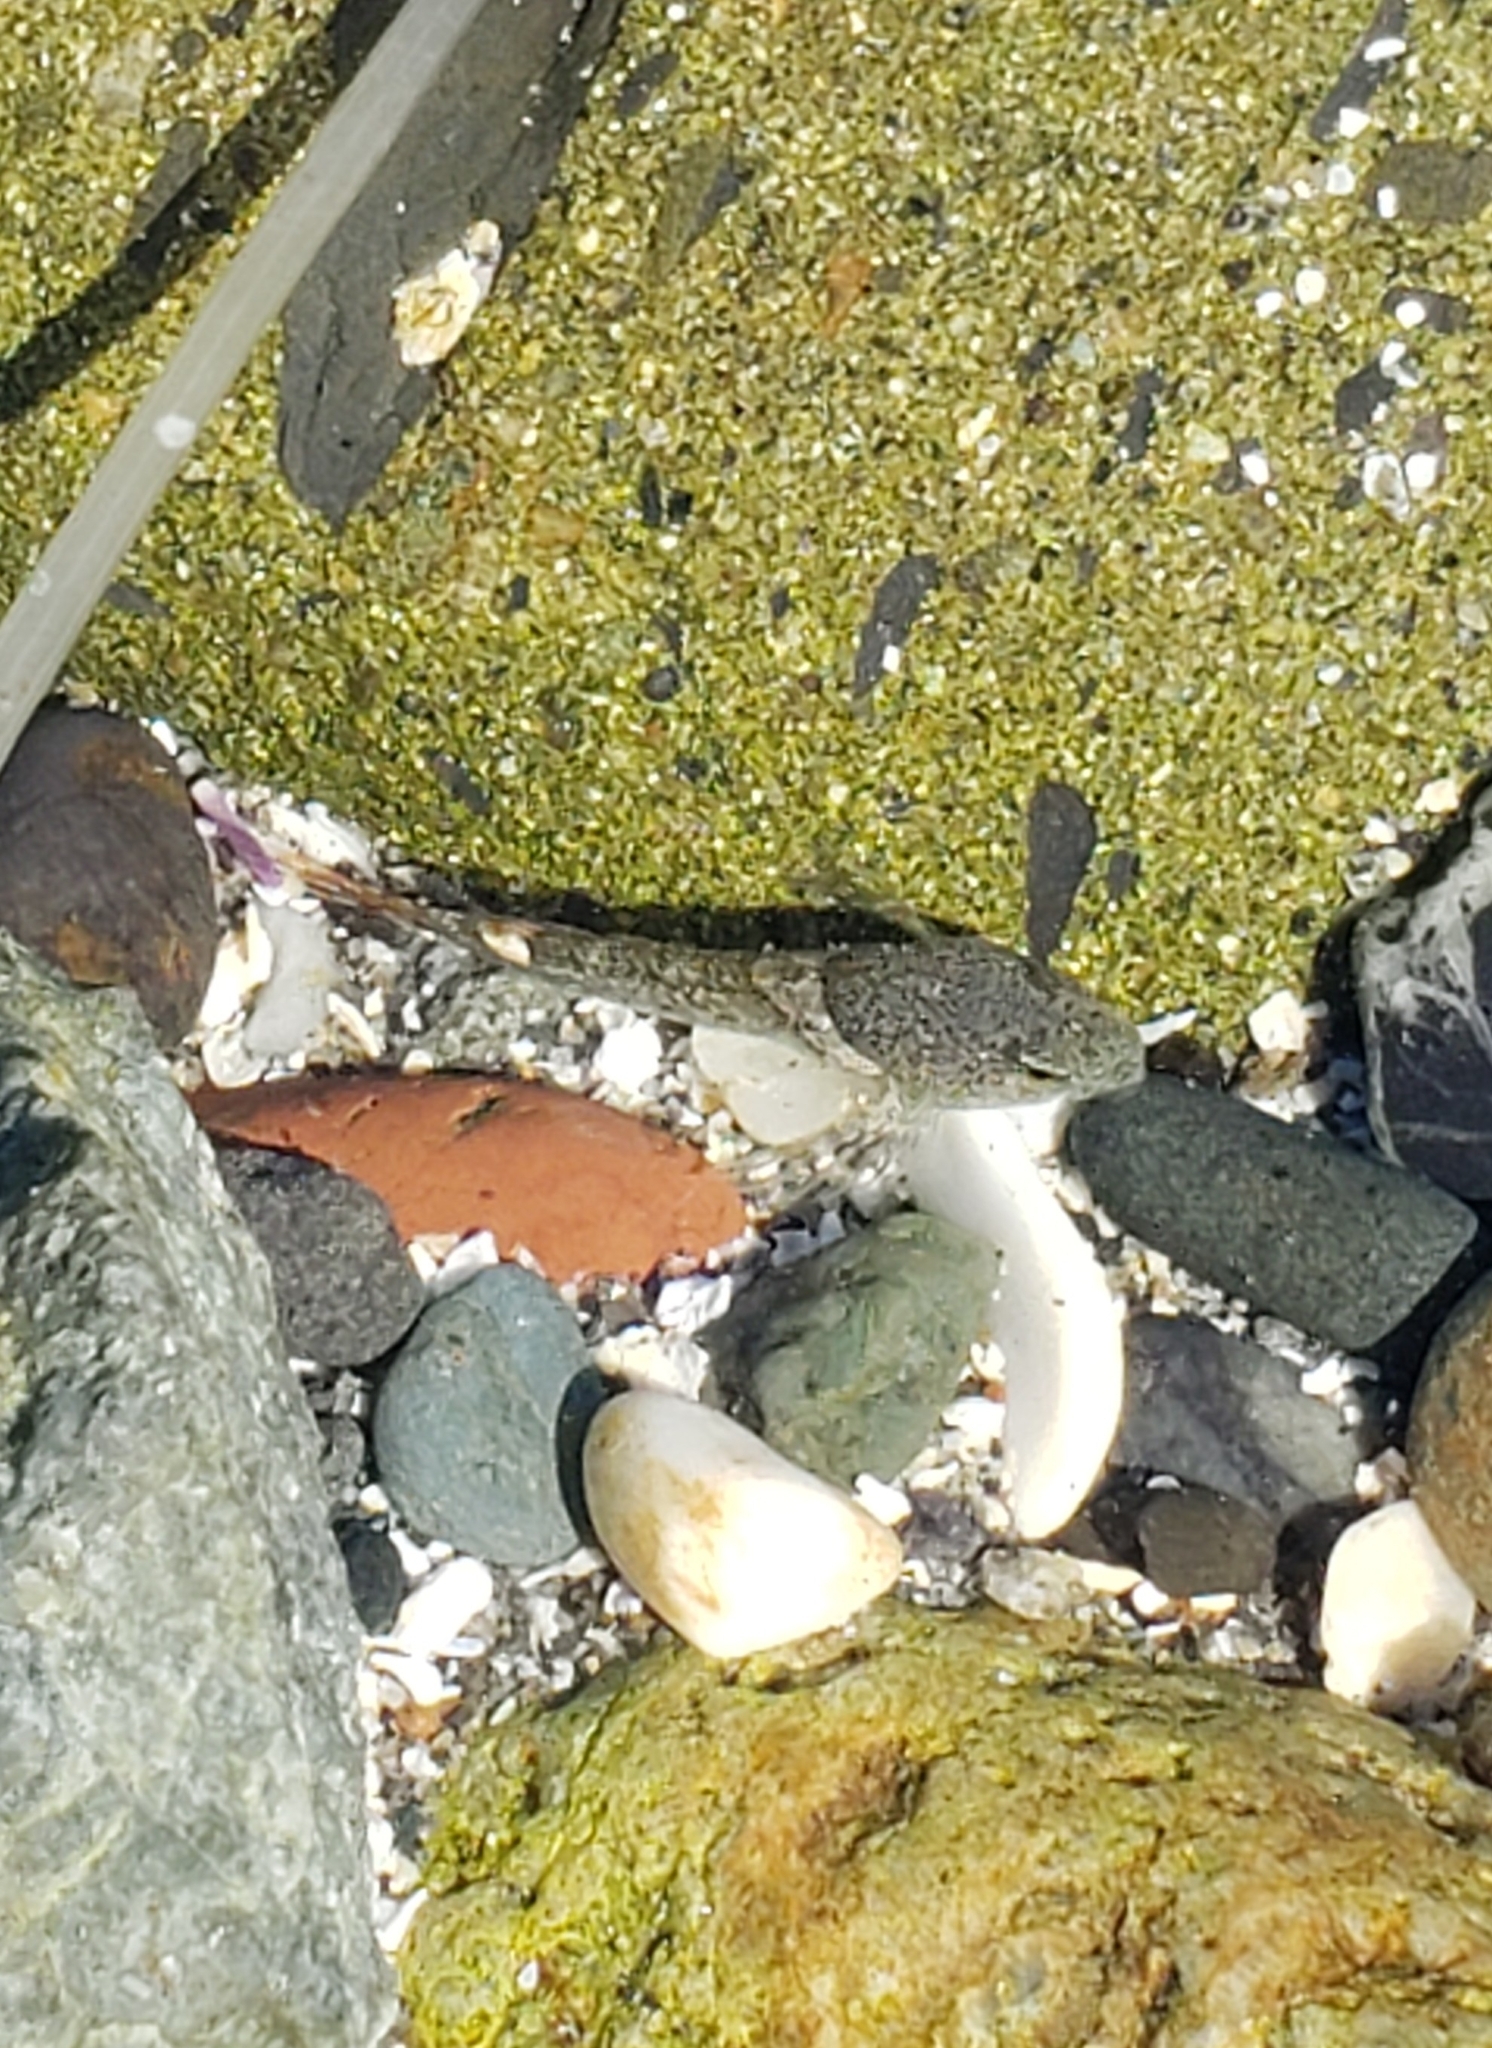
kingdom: Animalia
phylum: Chordata
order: Scorpaeniformes
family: Cottidae
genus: Oligocottus
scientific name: Oligocottus maculosus
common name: Tidepool sculpin
